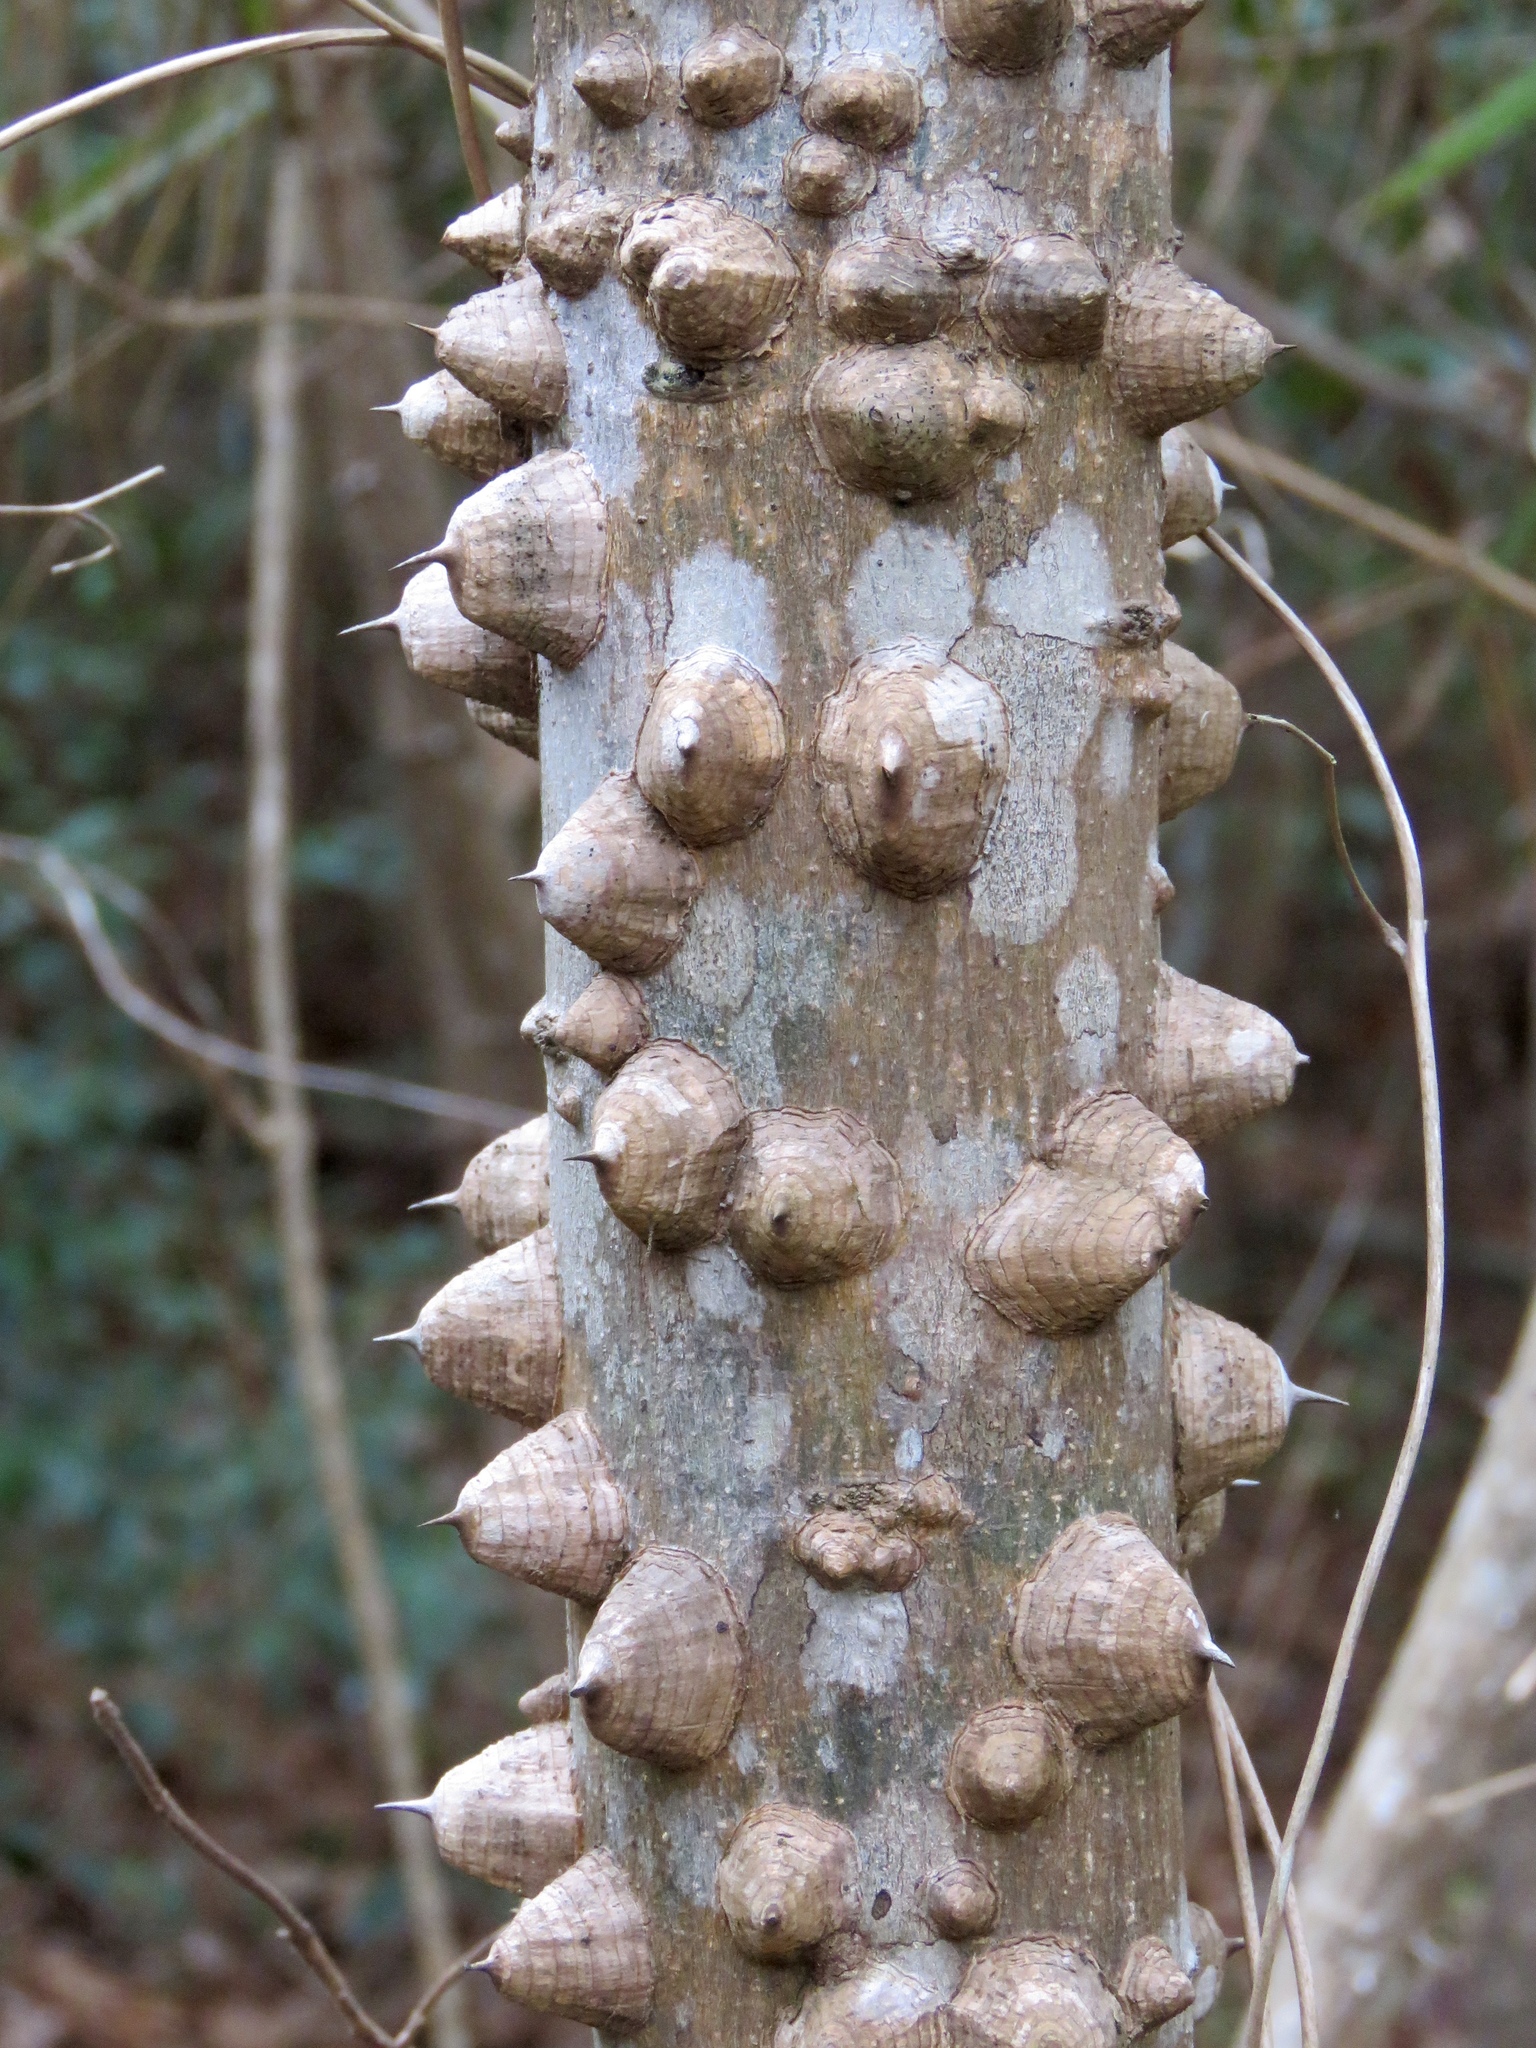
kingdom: Plantae
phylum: Tracheophyta
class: Magnoliopsida
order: Sapindales
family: Rutaceae
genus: Zanthoxylum
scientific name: Zanthoxylum clava-herculis
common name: Hercules'-club
